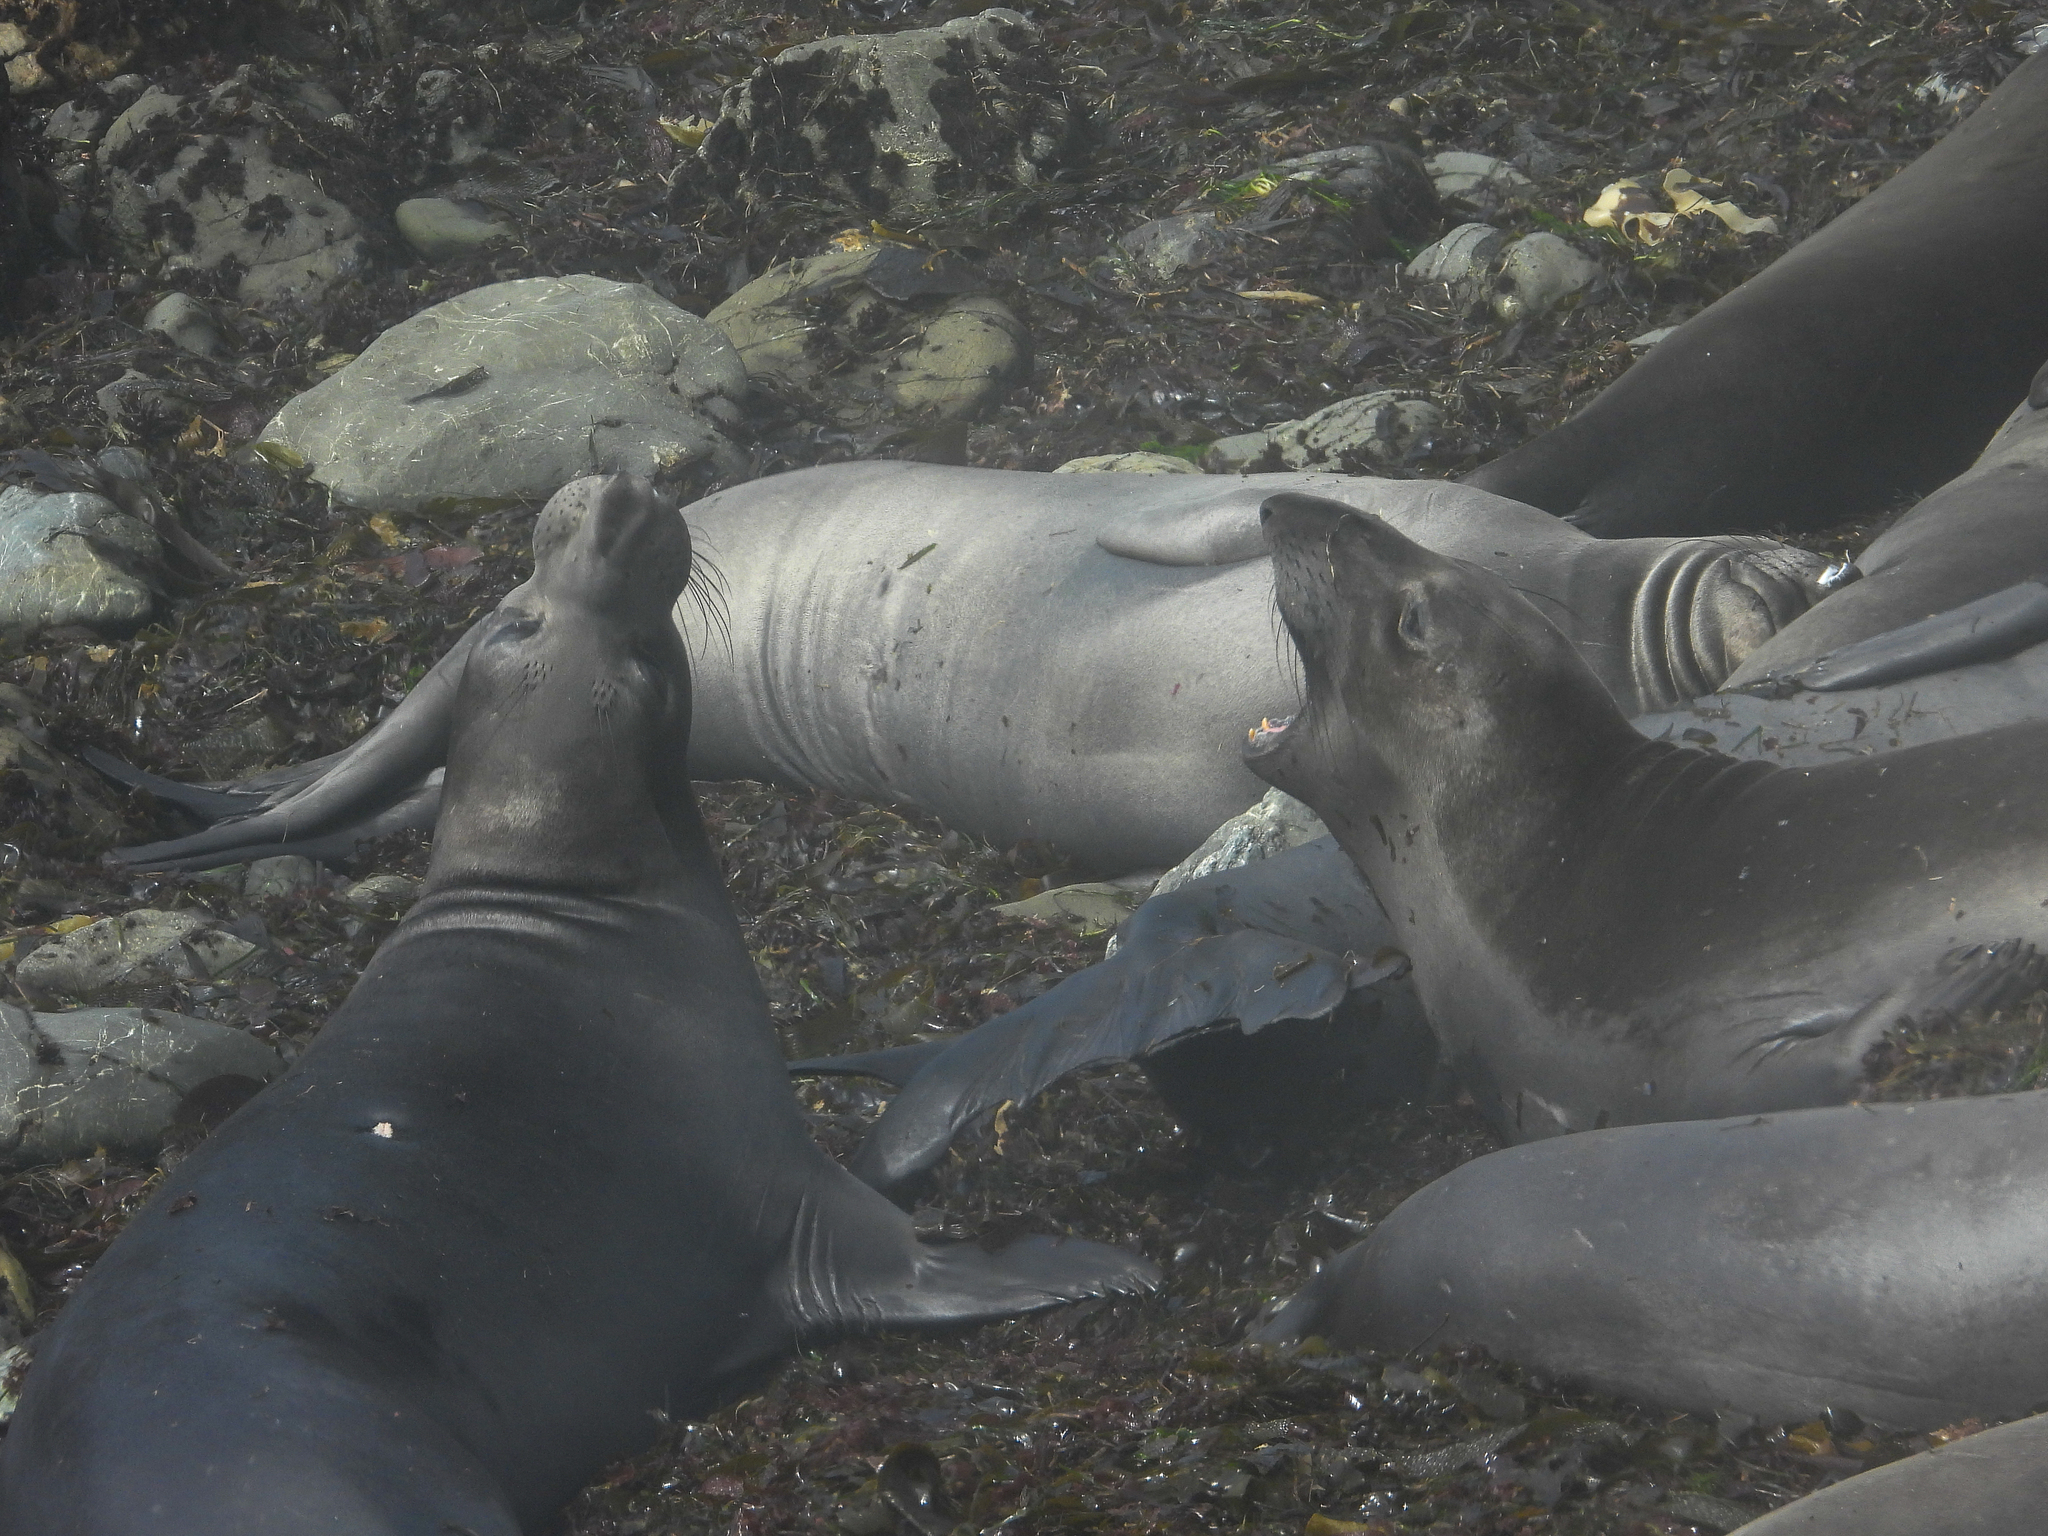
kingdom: Animalia
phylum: Chordata
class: Mammalia
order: Carnivora
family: Phocidae
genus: Mirounga
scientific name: Mirounga angustirostris
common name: Northern elephant seal
